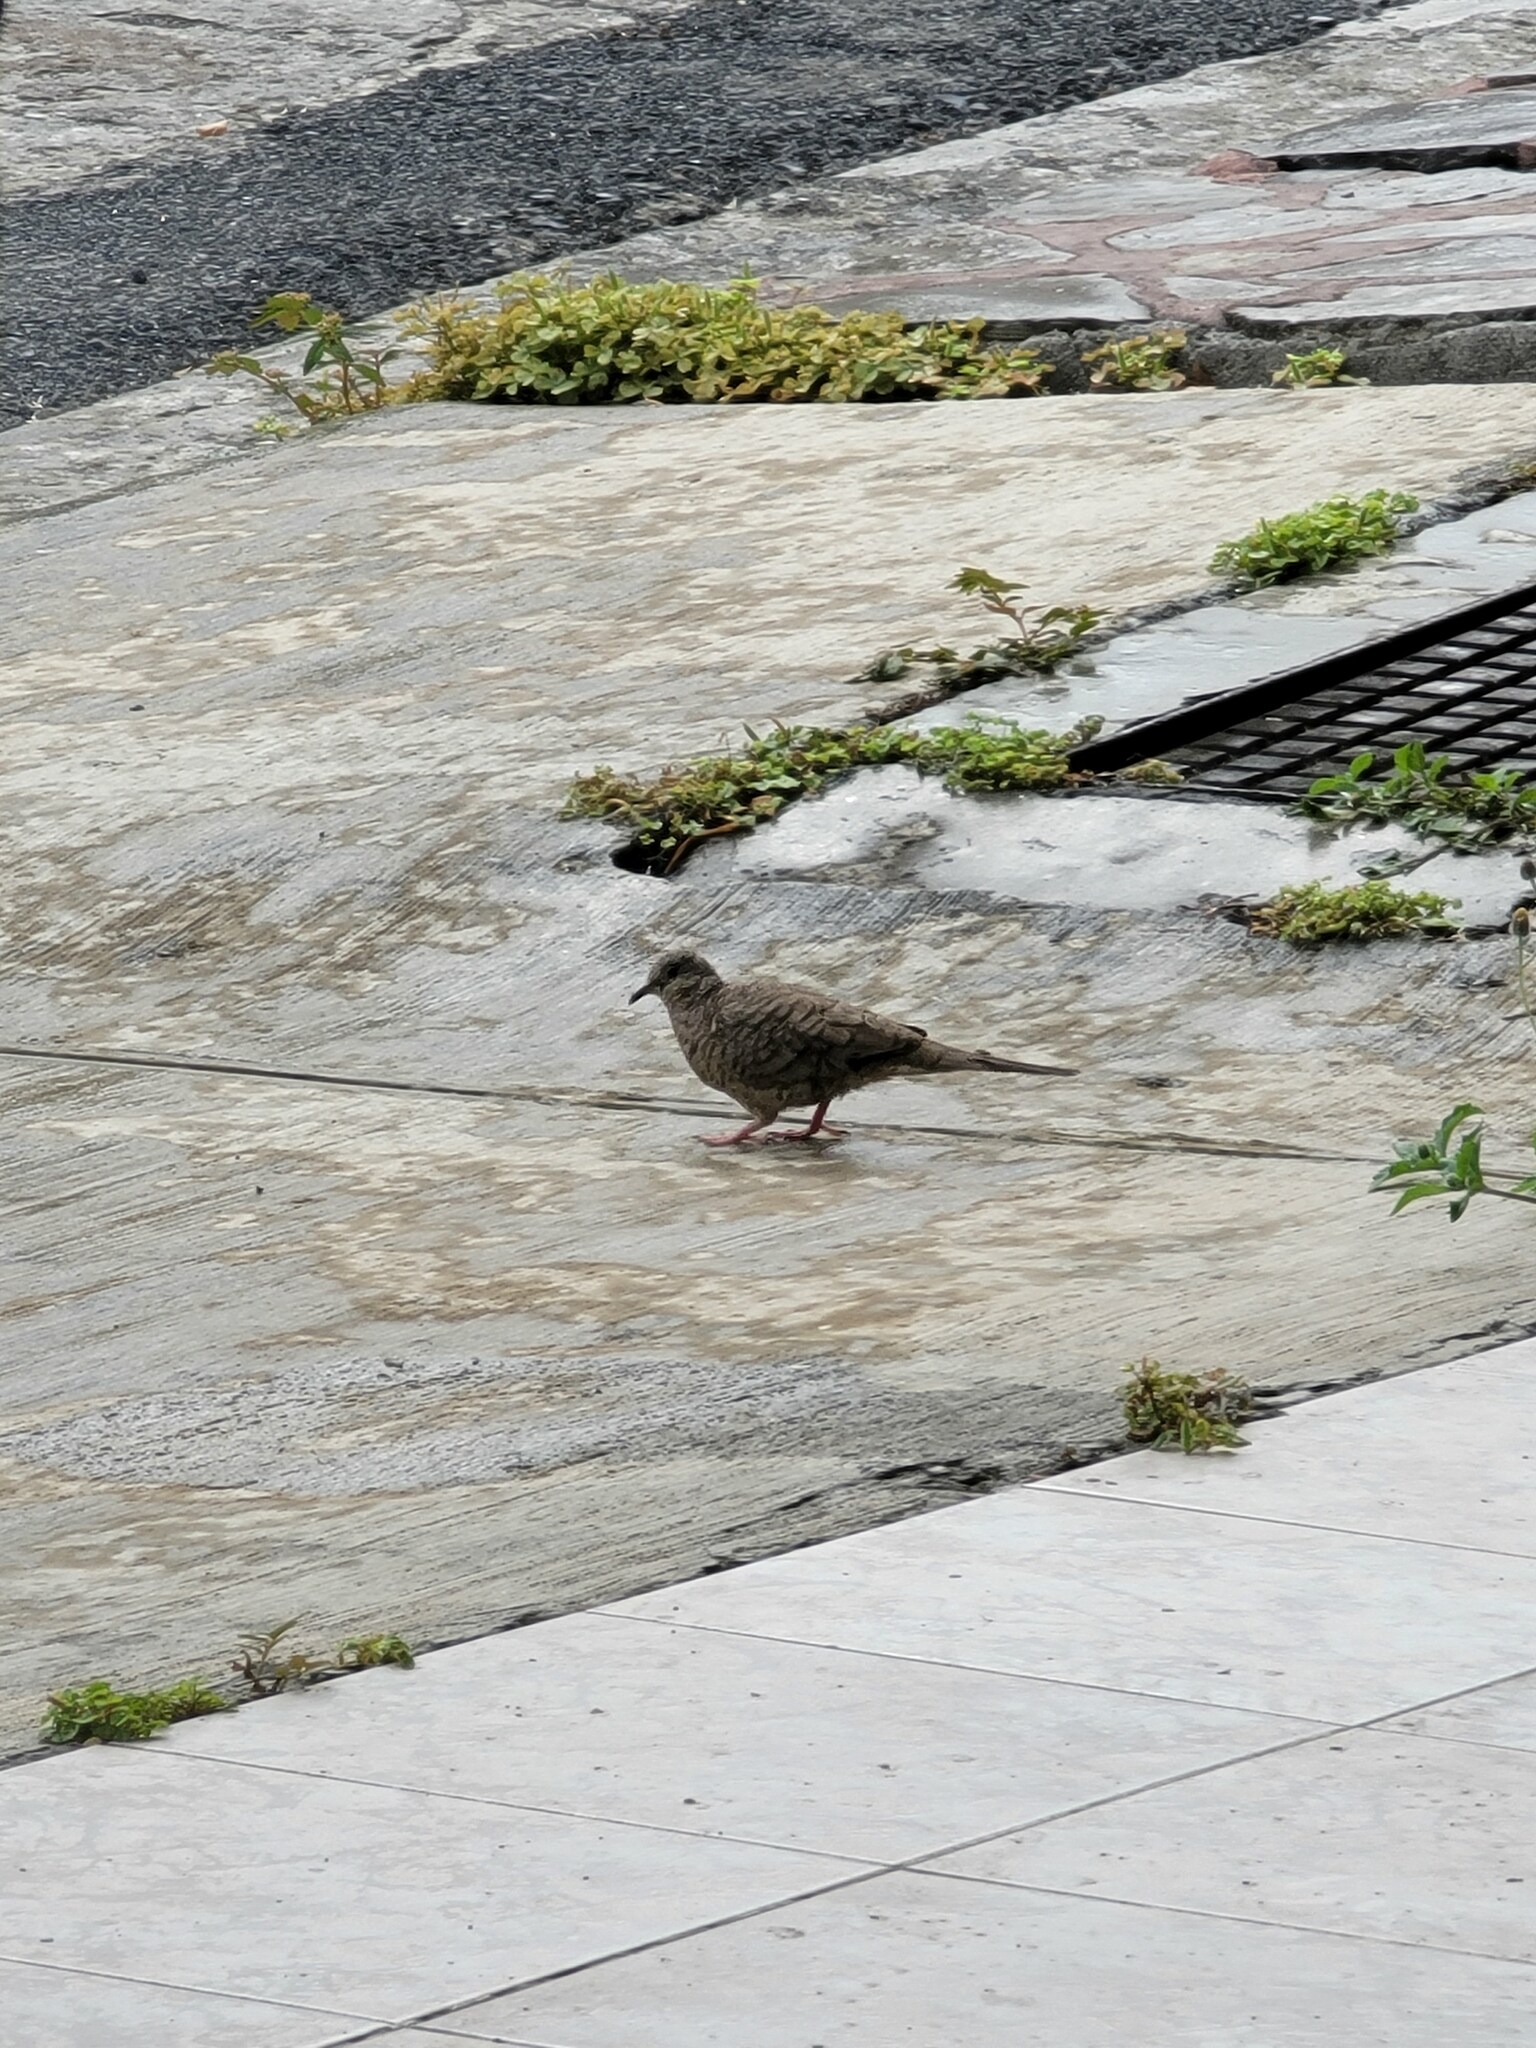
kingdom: Animalia
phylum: Chordata
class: Aves
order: Columbiformes
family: Columbidae
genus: Columbina
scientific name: Columbina inca
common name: Inca dove
